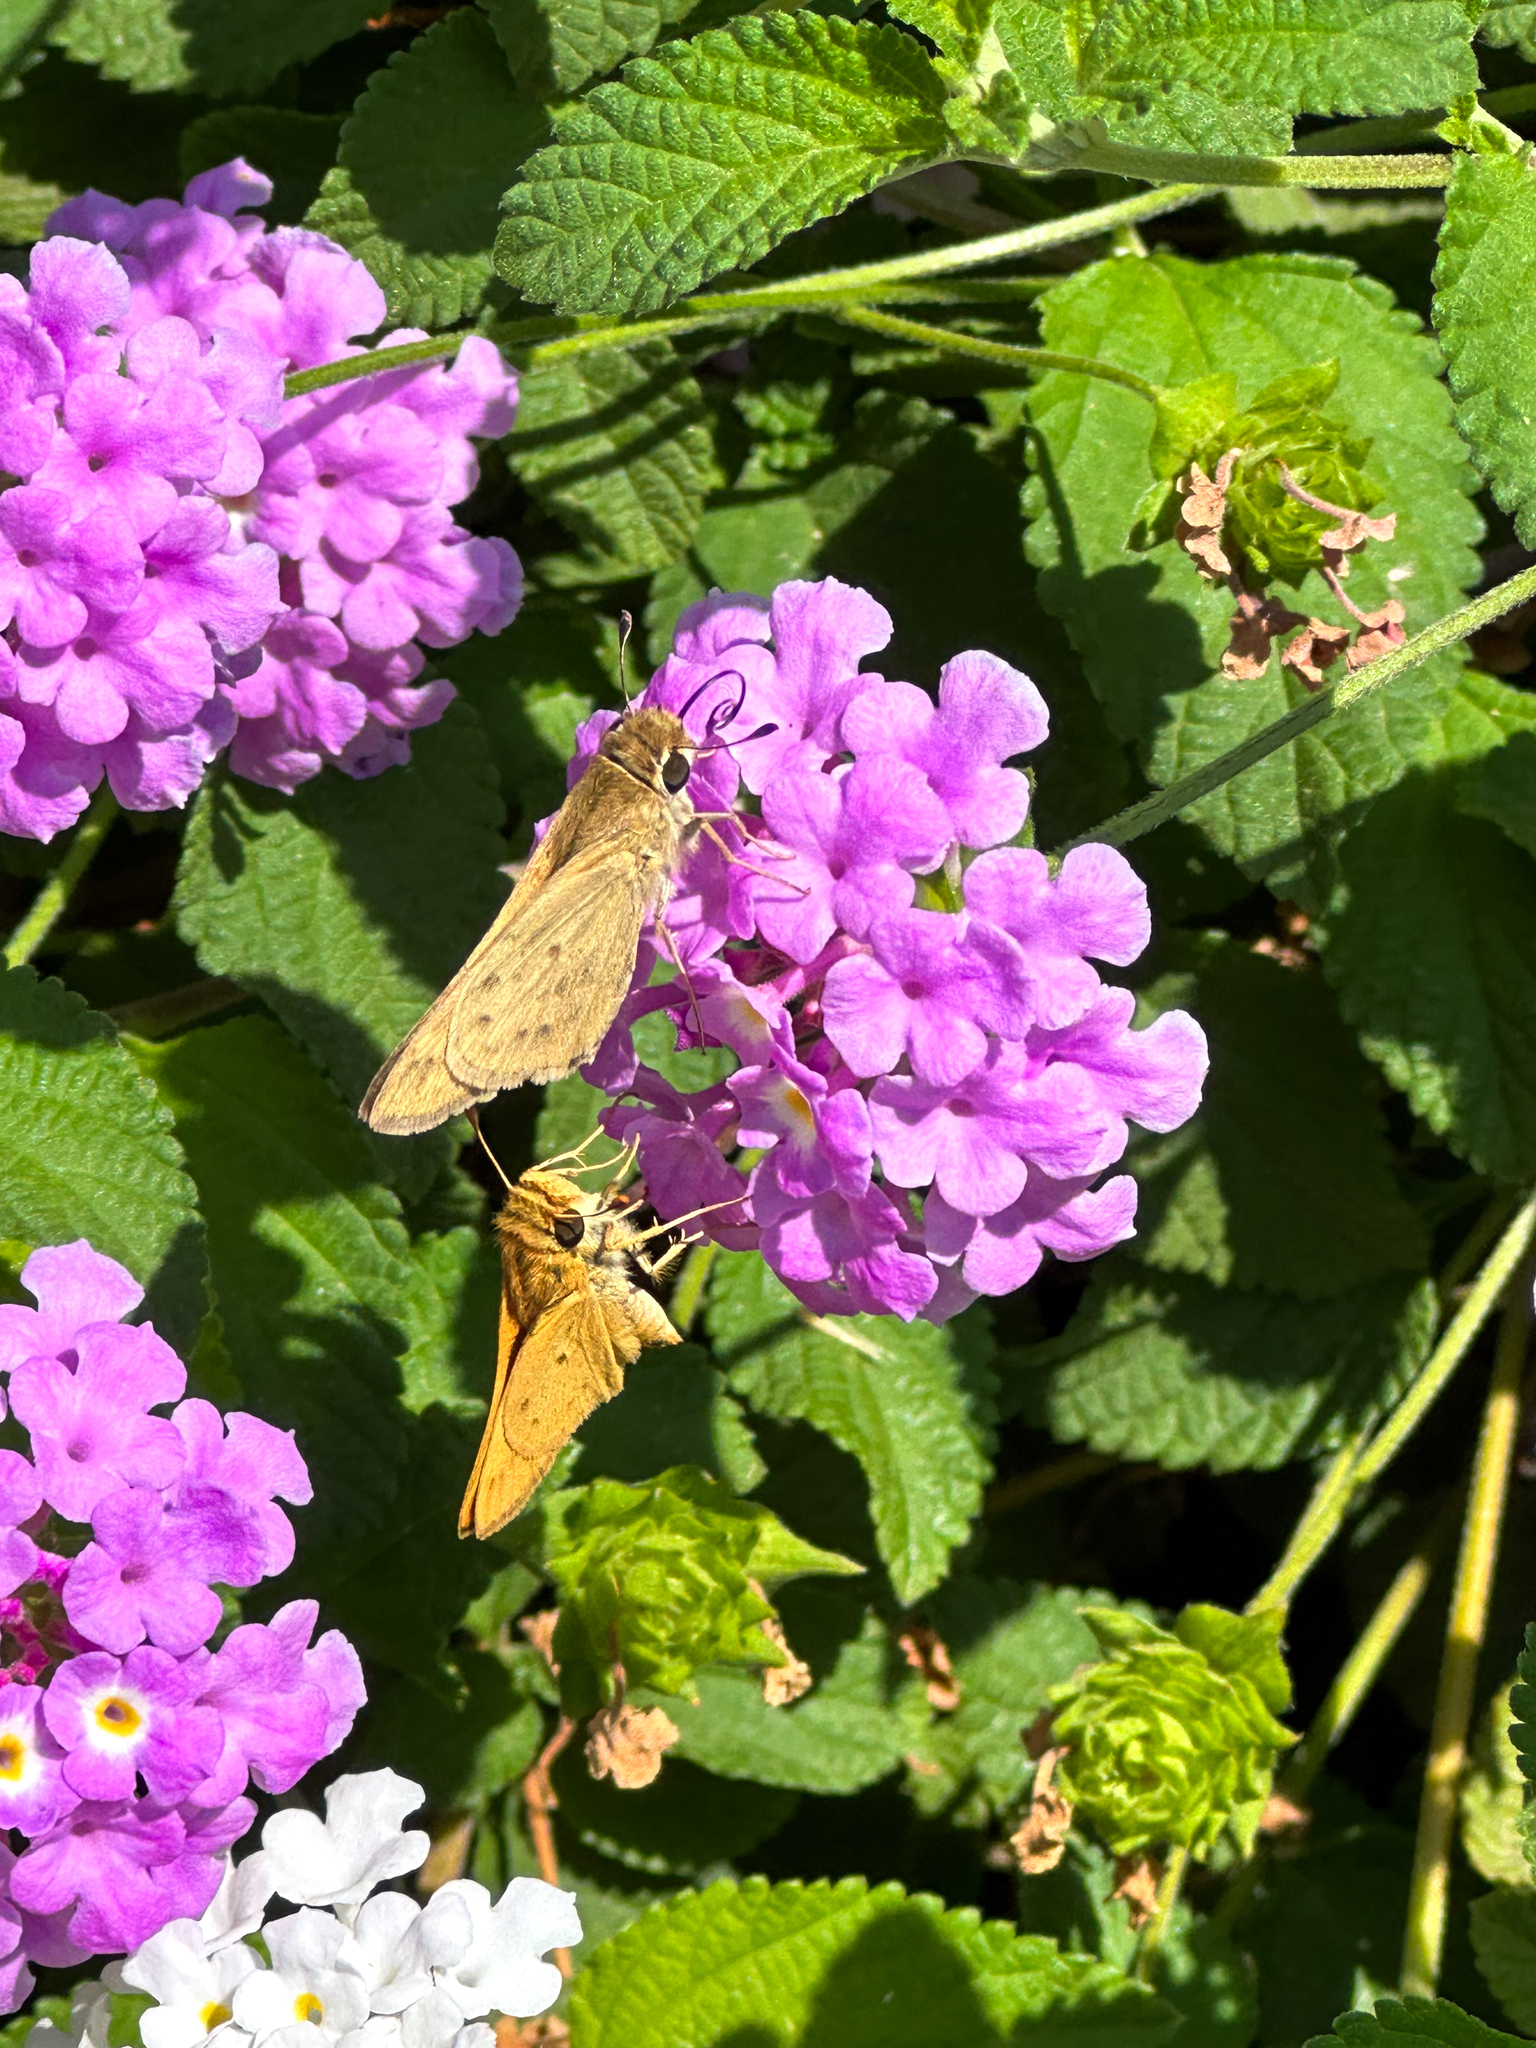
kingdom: Animalia
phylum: Arthropoda
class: Insecta
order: Lepidoptera
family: Hesperiidae
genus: Hylephila
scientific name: Hylephila phyleus
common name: Fiery skipper
